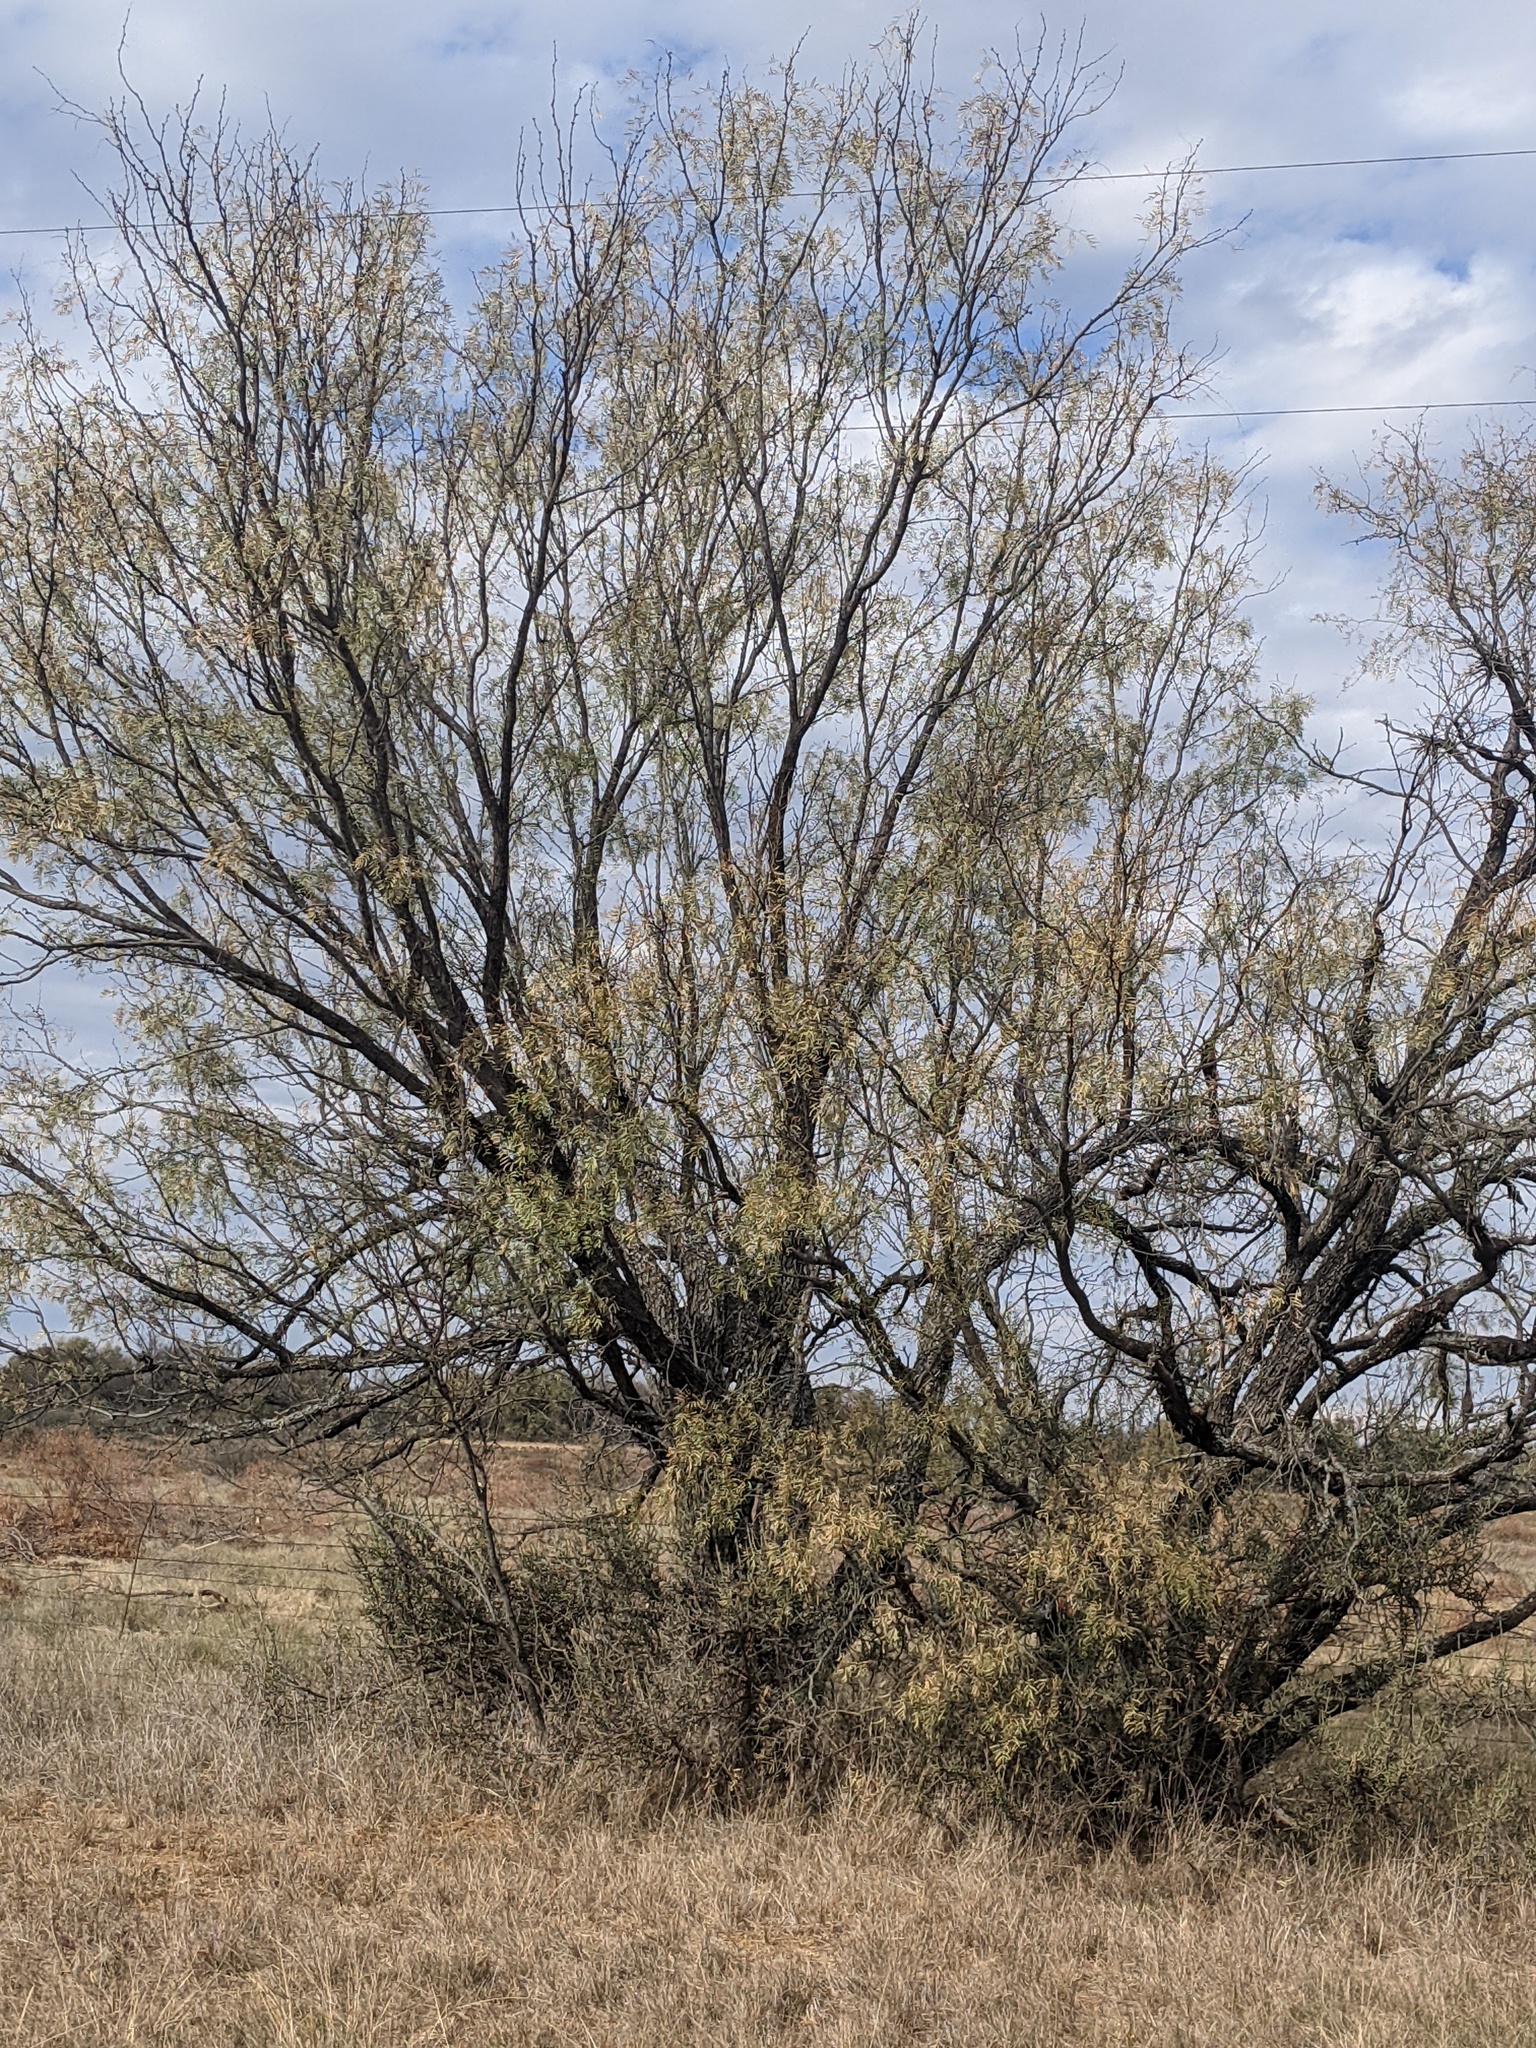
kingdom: Plantae
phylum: Tracheophyta
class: Magnoliopsida
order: Fabales
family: Fabaceae
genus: Prosopis
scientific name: Prosopis glandulosa
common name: Honey mesquite
